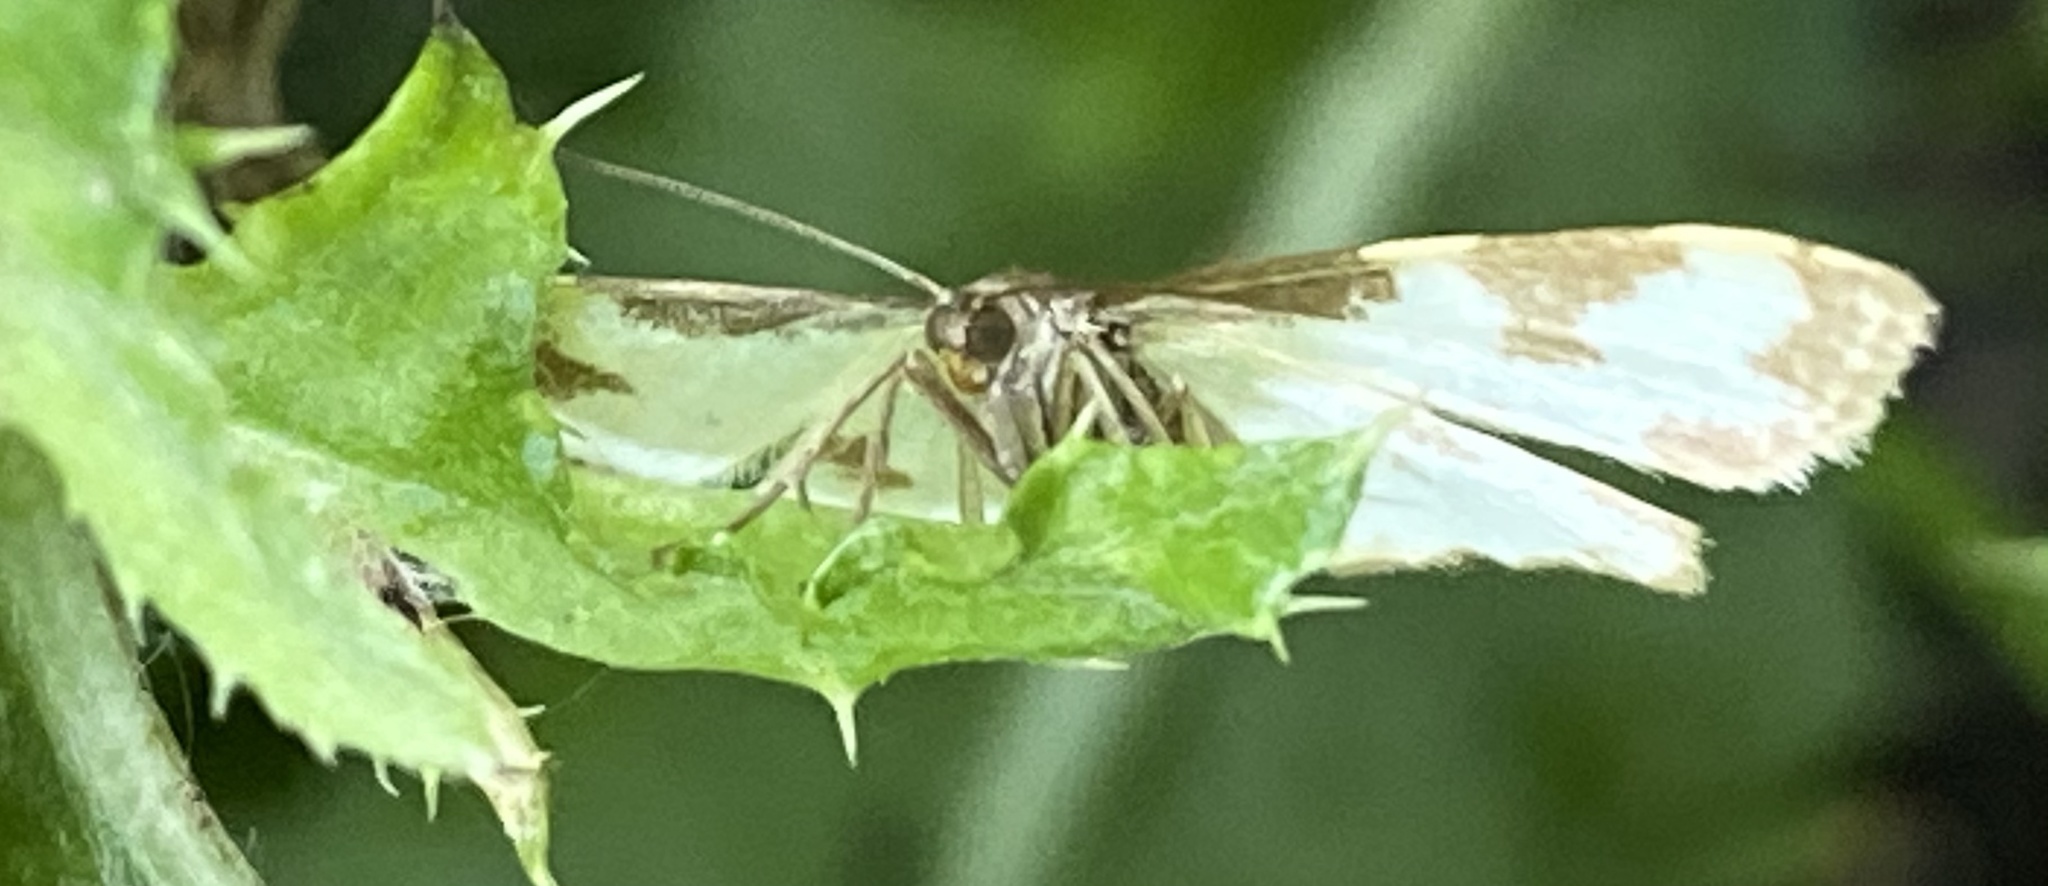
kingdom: Animalia
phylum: Arthropoda
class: Insecta
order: Lepidoptera
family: Geometridae
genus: Lomaspilis
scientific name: Lomaspilis marginata
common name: Clouded border
